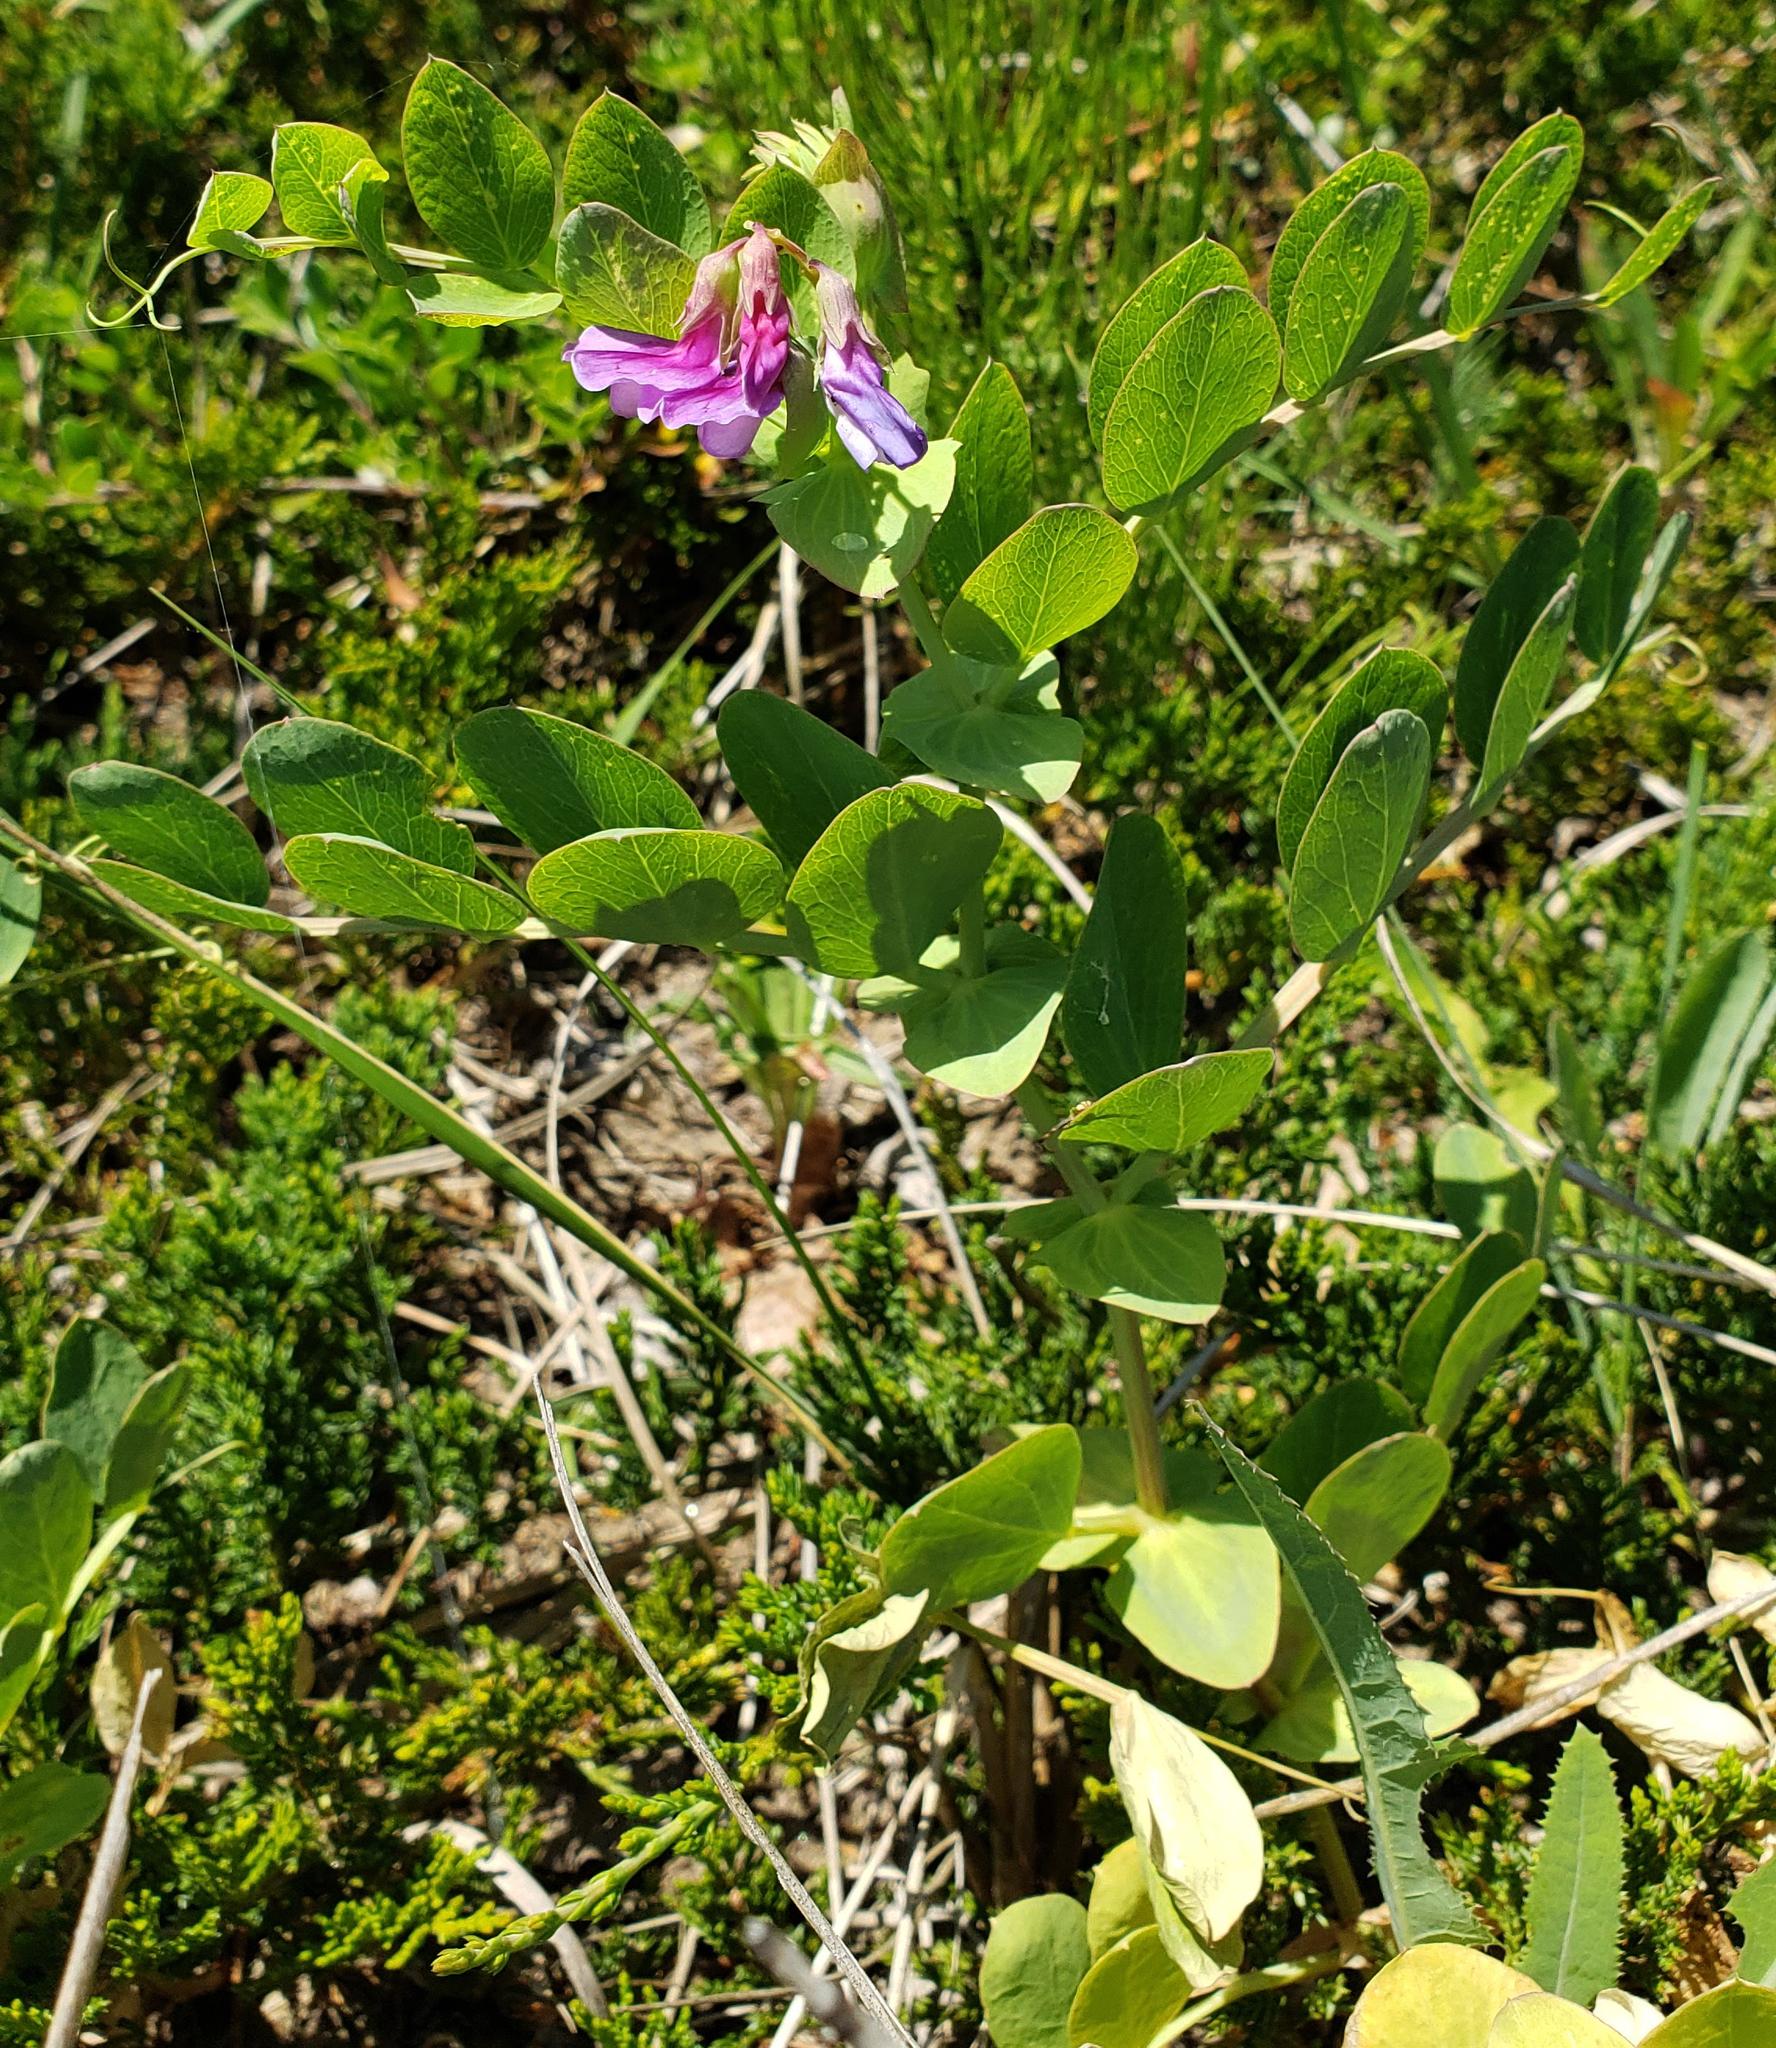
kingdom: Plantae
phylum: Tracheophyta
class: Magnoliopsida
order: Fabales
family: Fabaceae
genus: Lathyrus
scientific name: Lathyrus japonicus
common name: Sea pea
